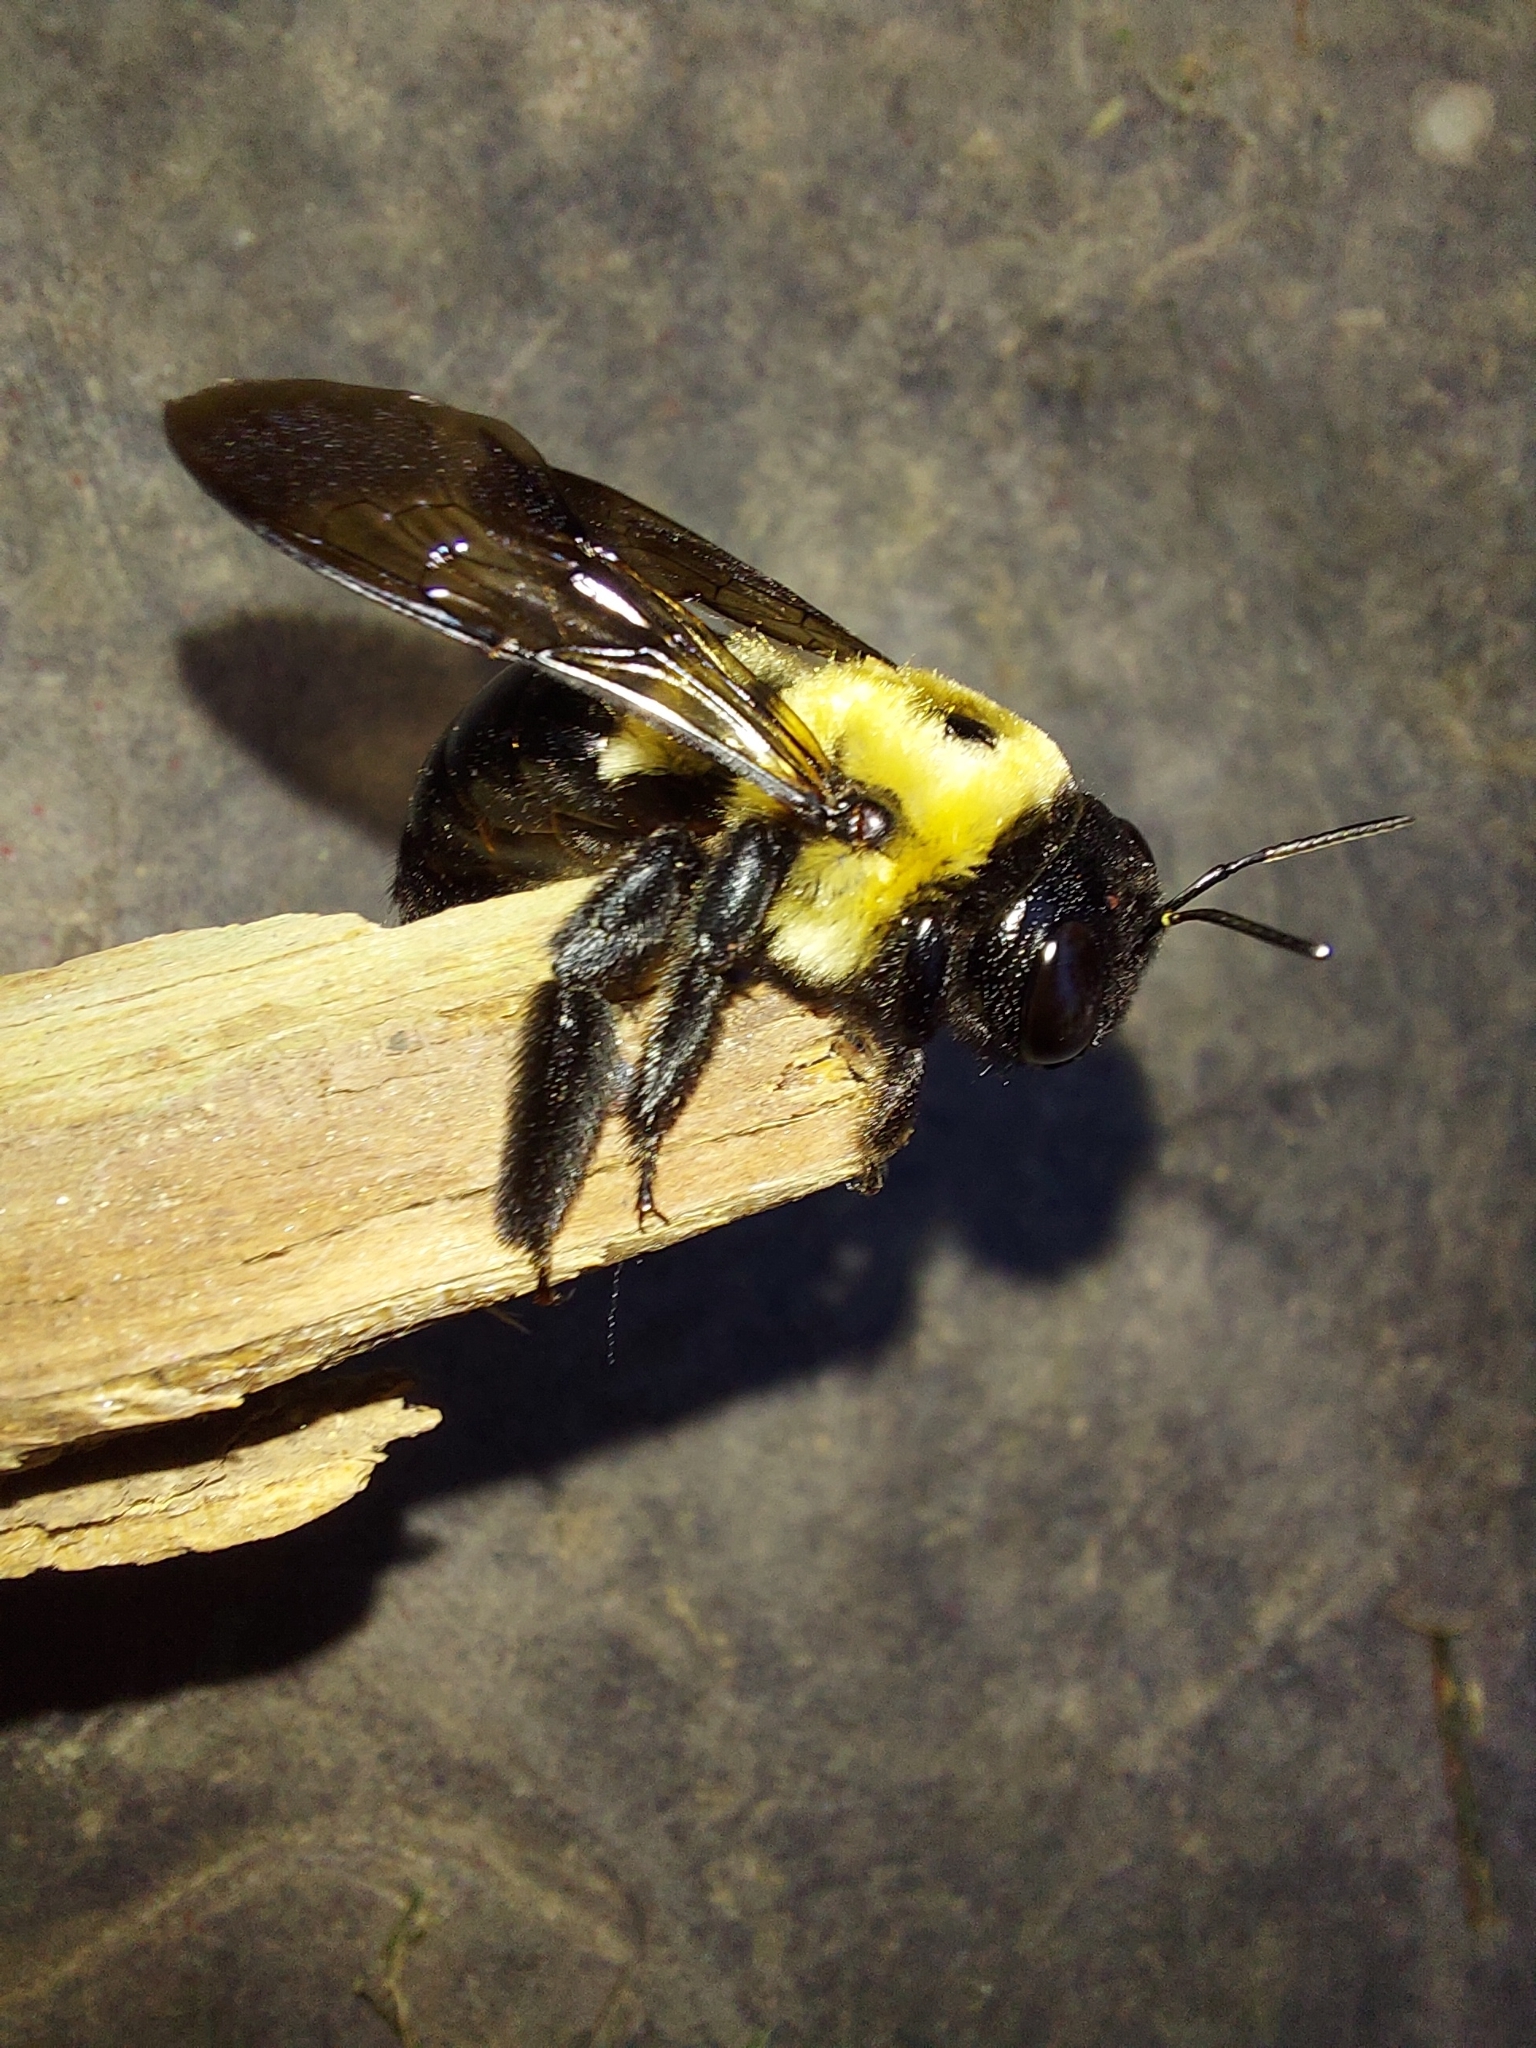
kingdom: Animalia
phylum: Arthropoda
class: Insecta
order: Hymenoptera
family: Apidae
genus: Xylocopa
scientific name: Xylocopa virginica
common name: Carpenter bee
